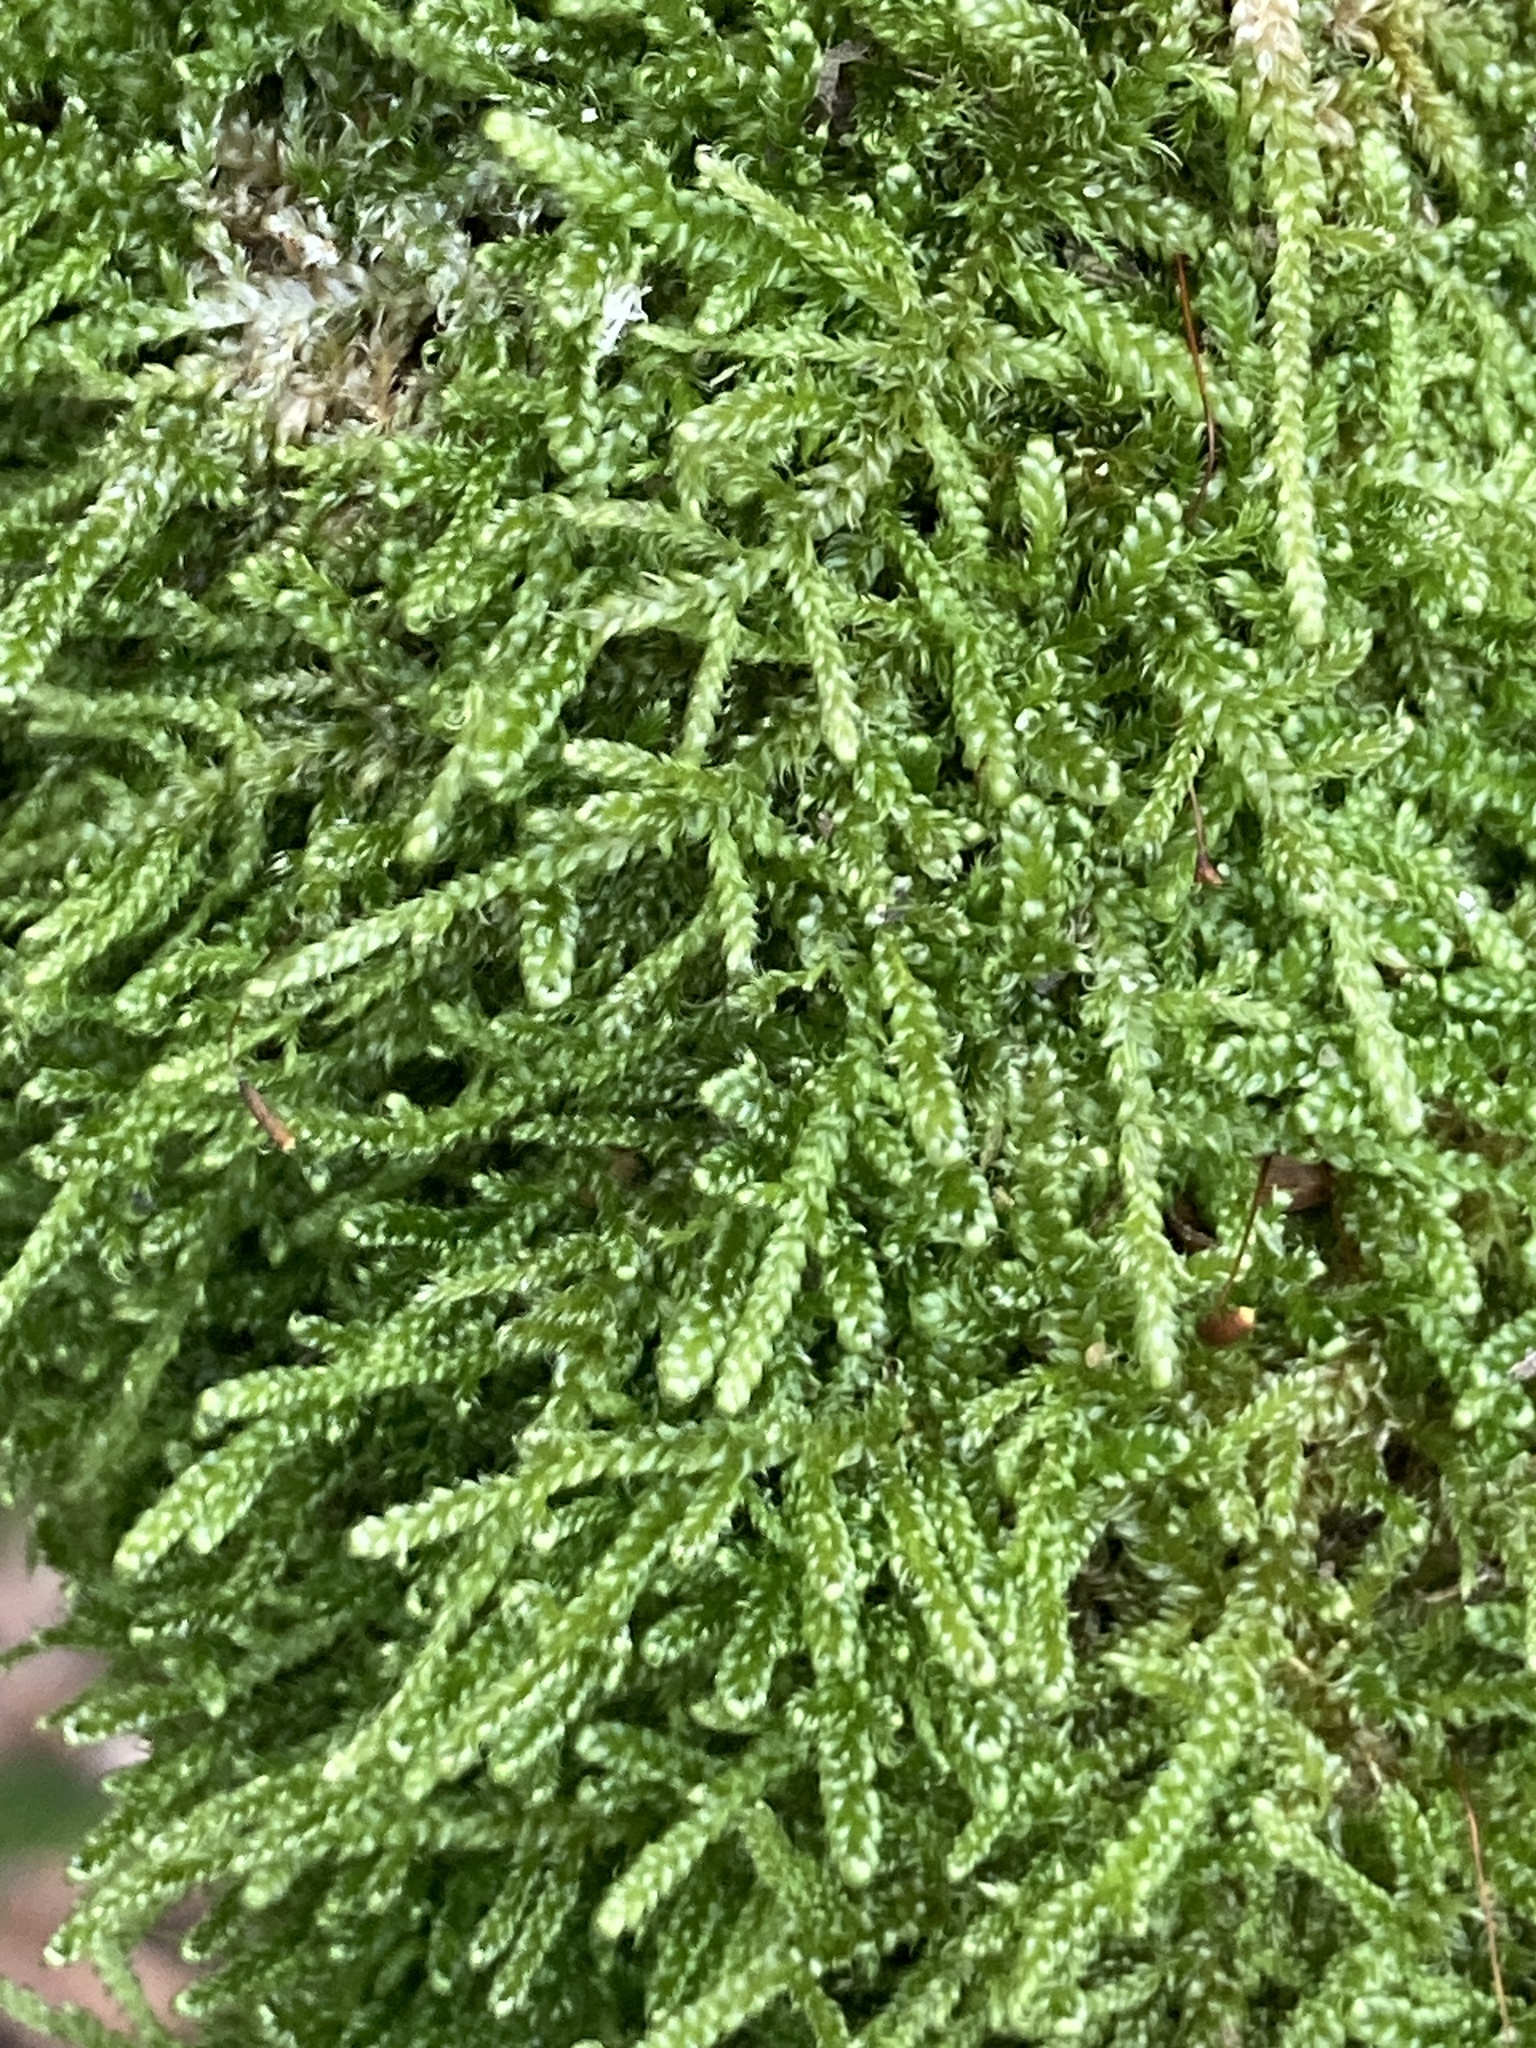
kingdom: Plantae
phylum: Bryophyta
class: Bryopsida
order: Hypnales
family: Hypnaceae
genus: Hypnum
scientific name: Hypnum cupressiforme
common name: Cypress-leaved plait-moss
